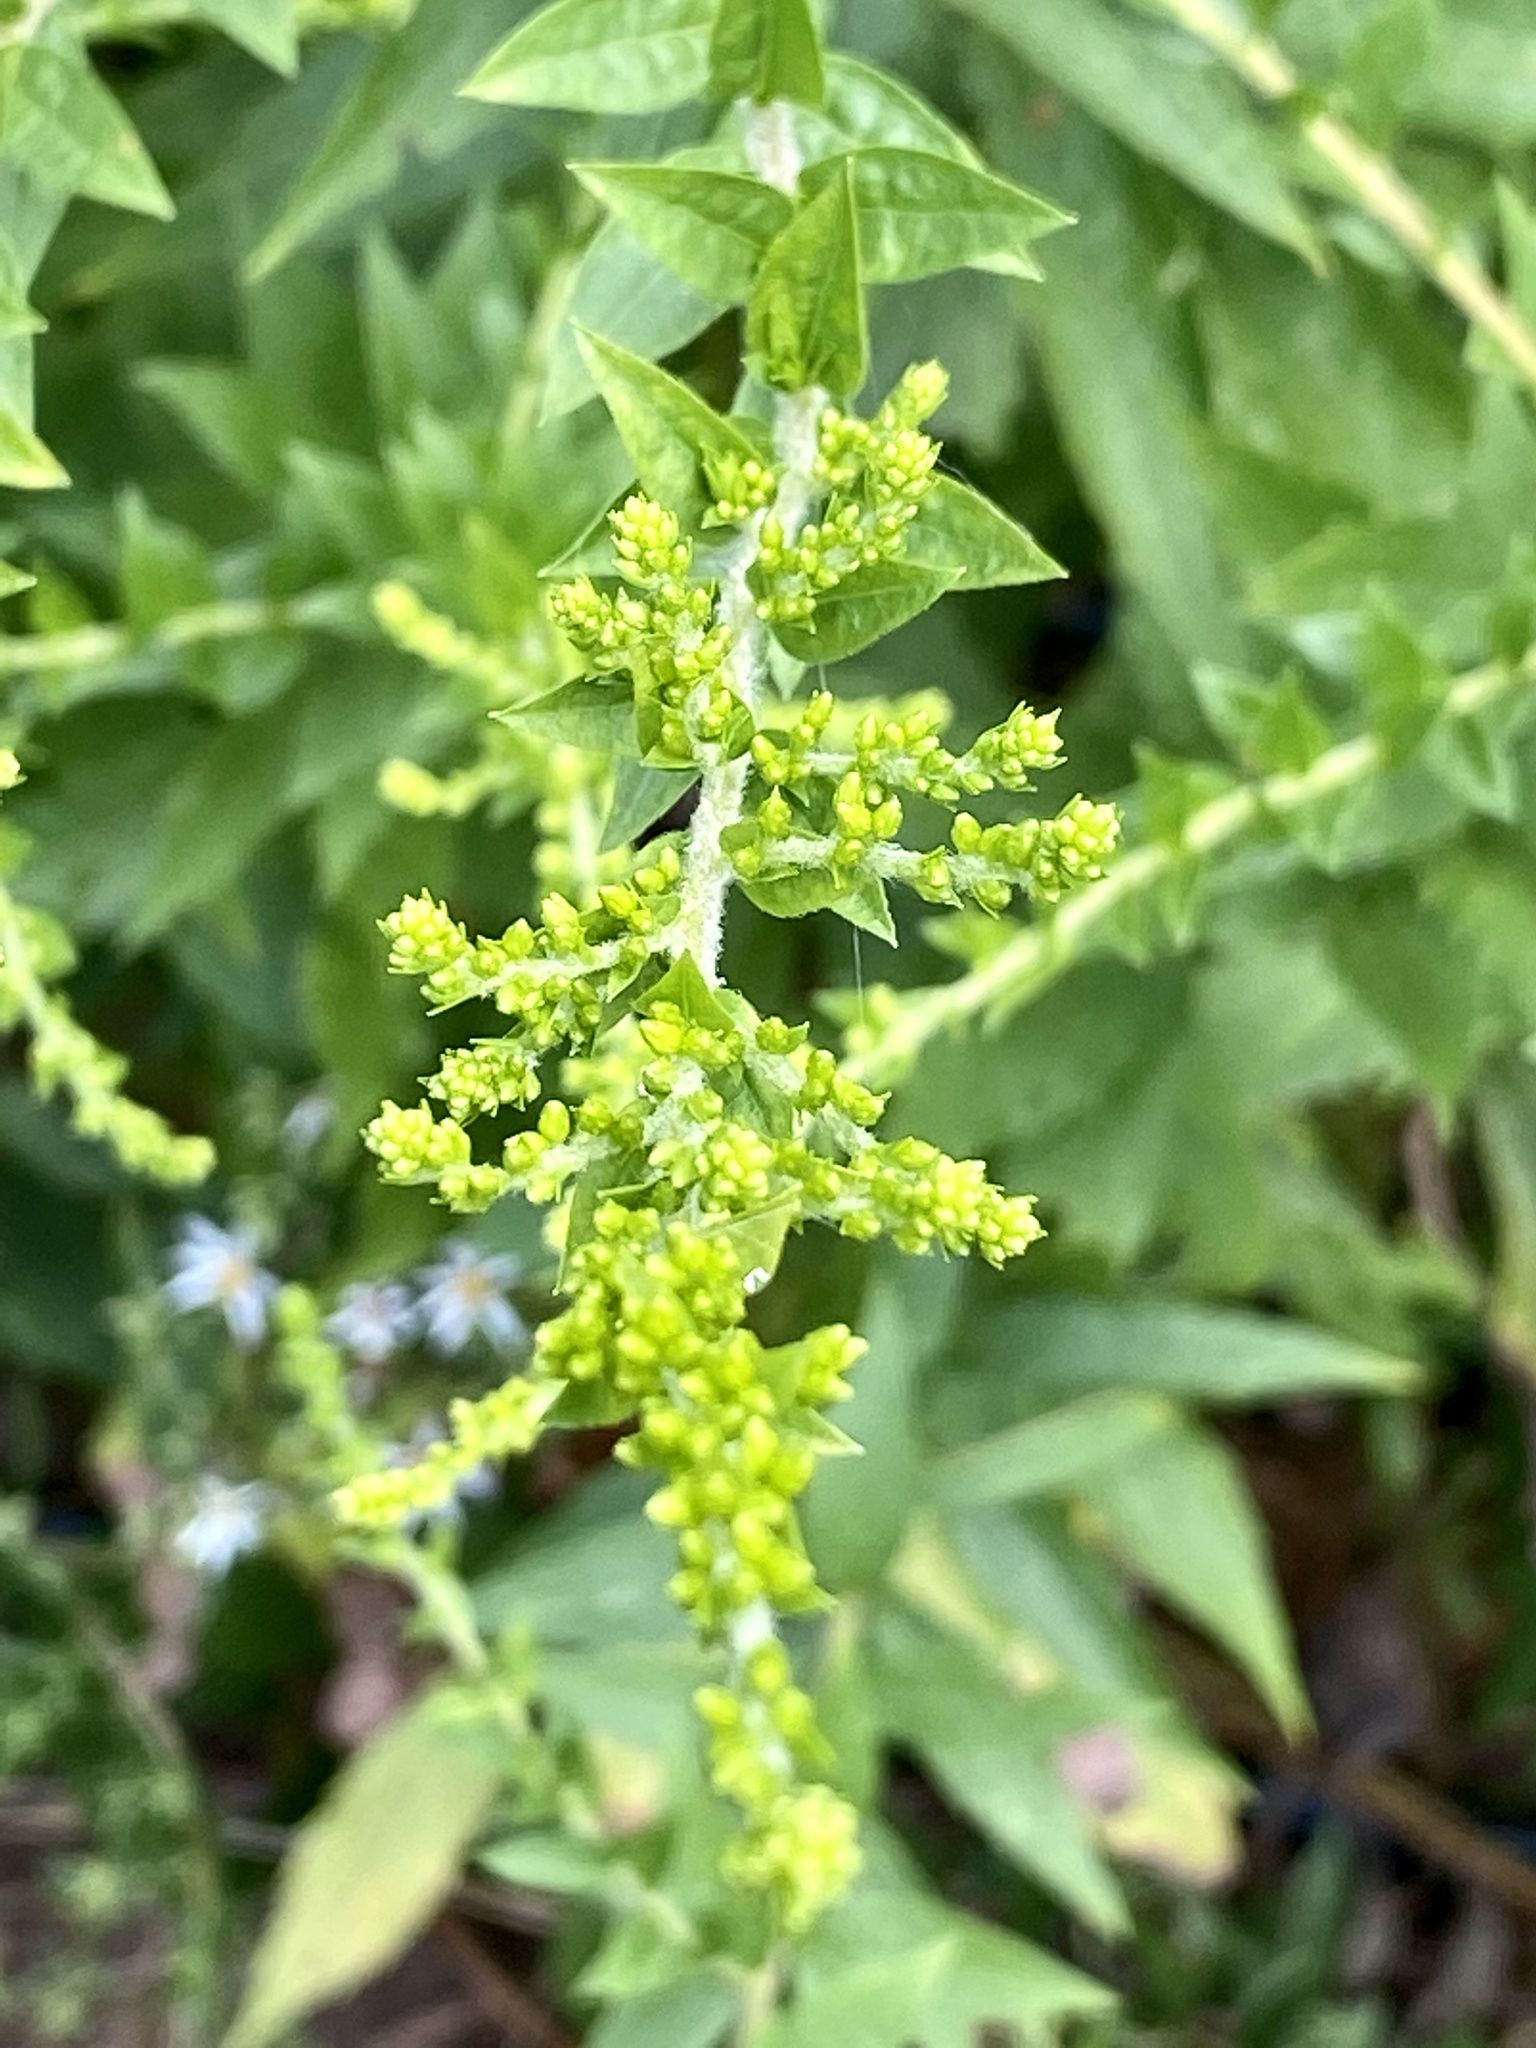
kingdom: Plantae
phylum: Tracheophyta
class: Magnoliopsida
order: Asterales
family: Asteraceae
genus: Solidago
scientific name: Solidago rugosa
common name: Rough-stemmed goldenrod
